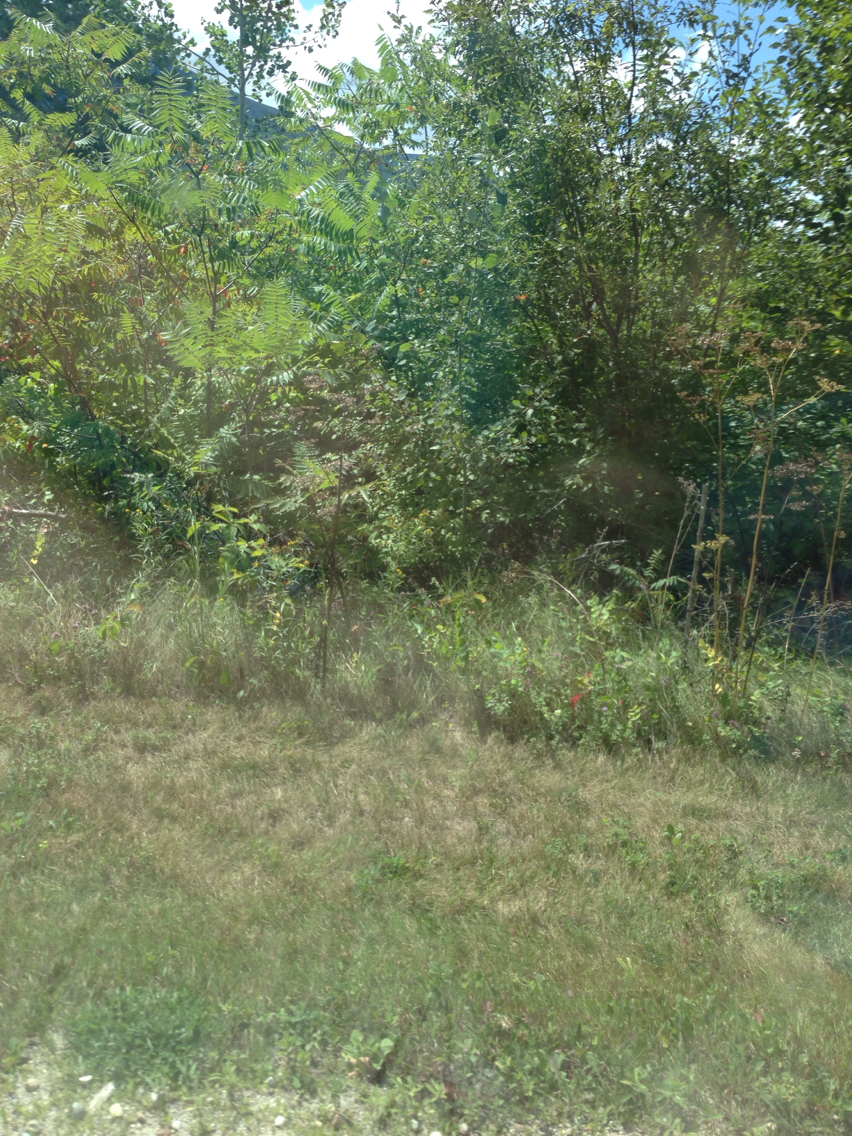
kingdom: Plantae
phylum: Tracheophyta
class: Magnoliopsida
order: Apiales
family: Apiaceae
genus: Pastinaca
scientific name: Pastinaca sativa
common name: Wild parsnip
